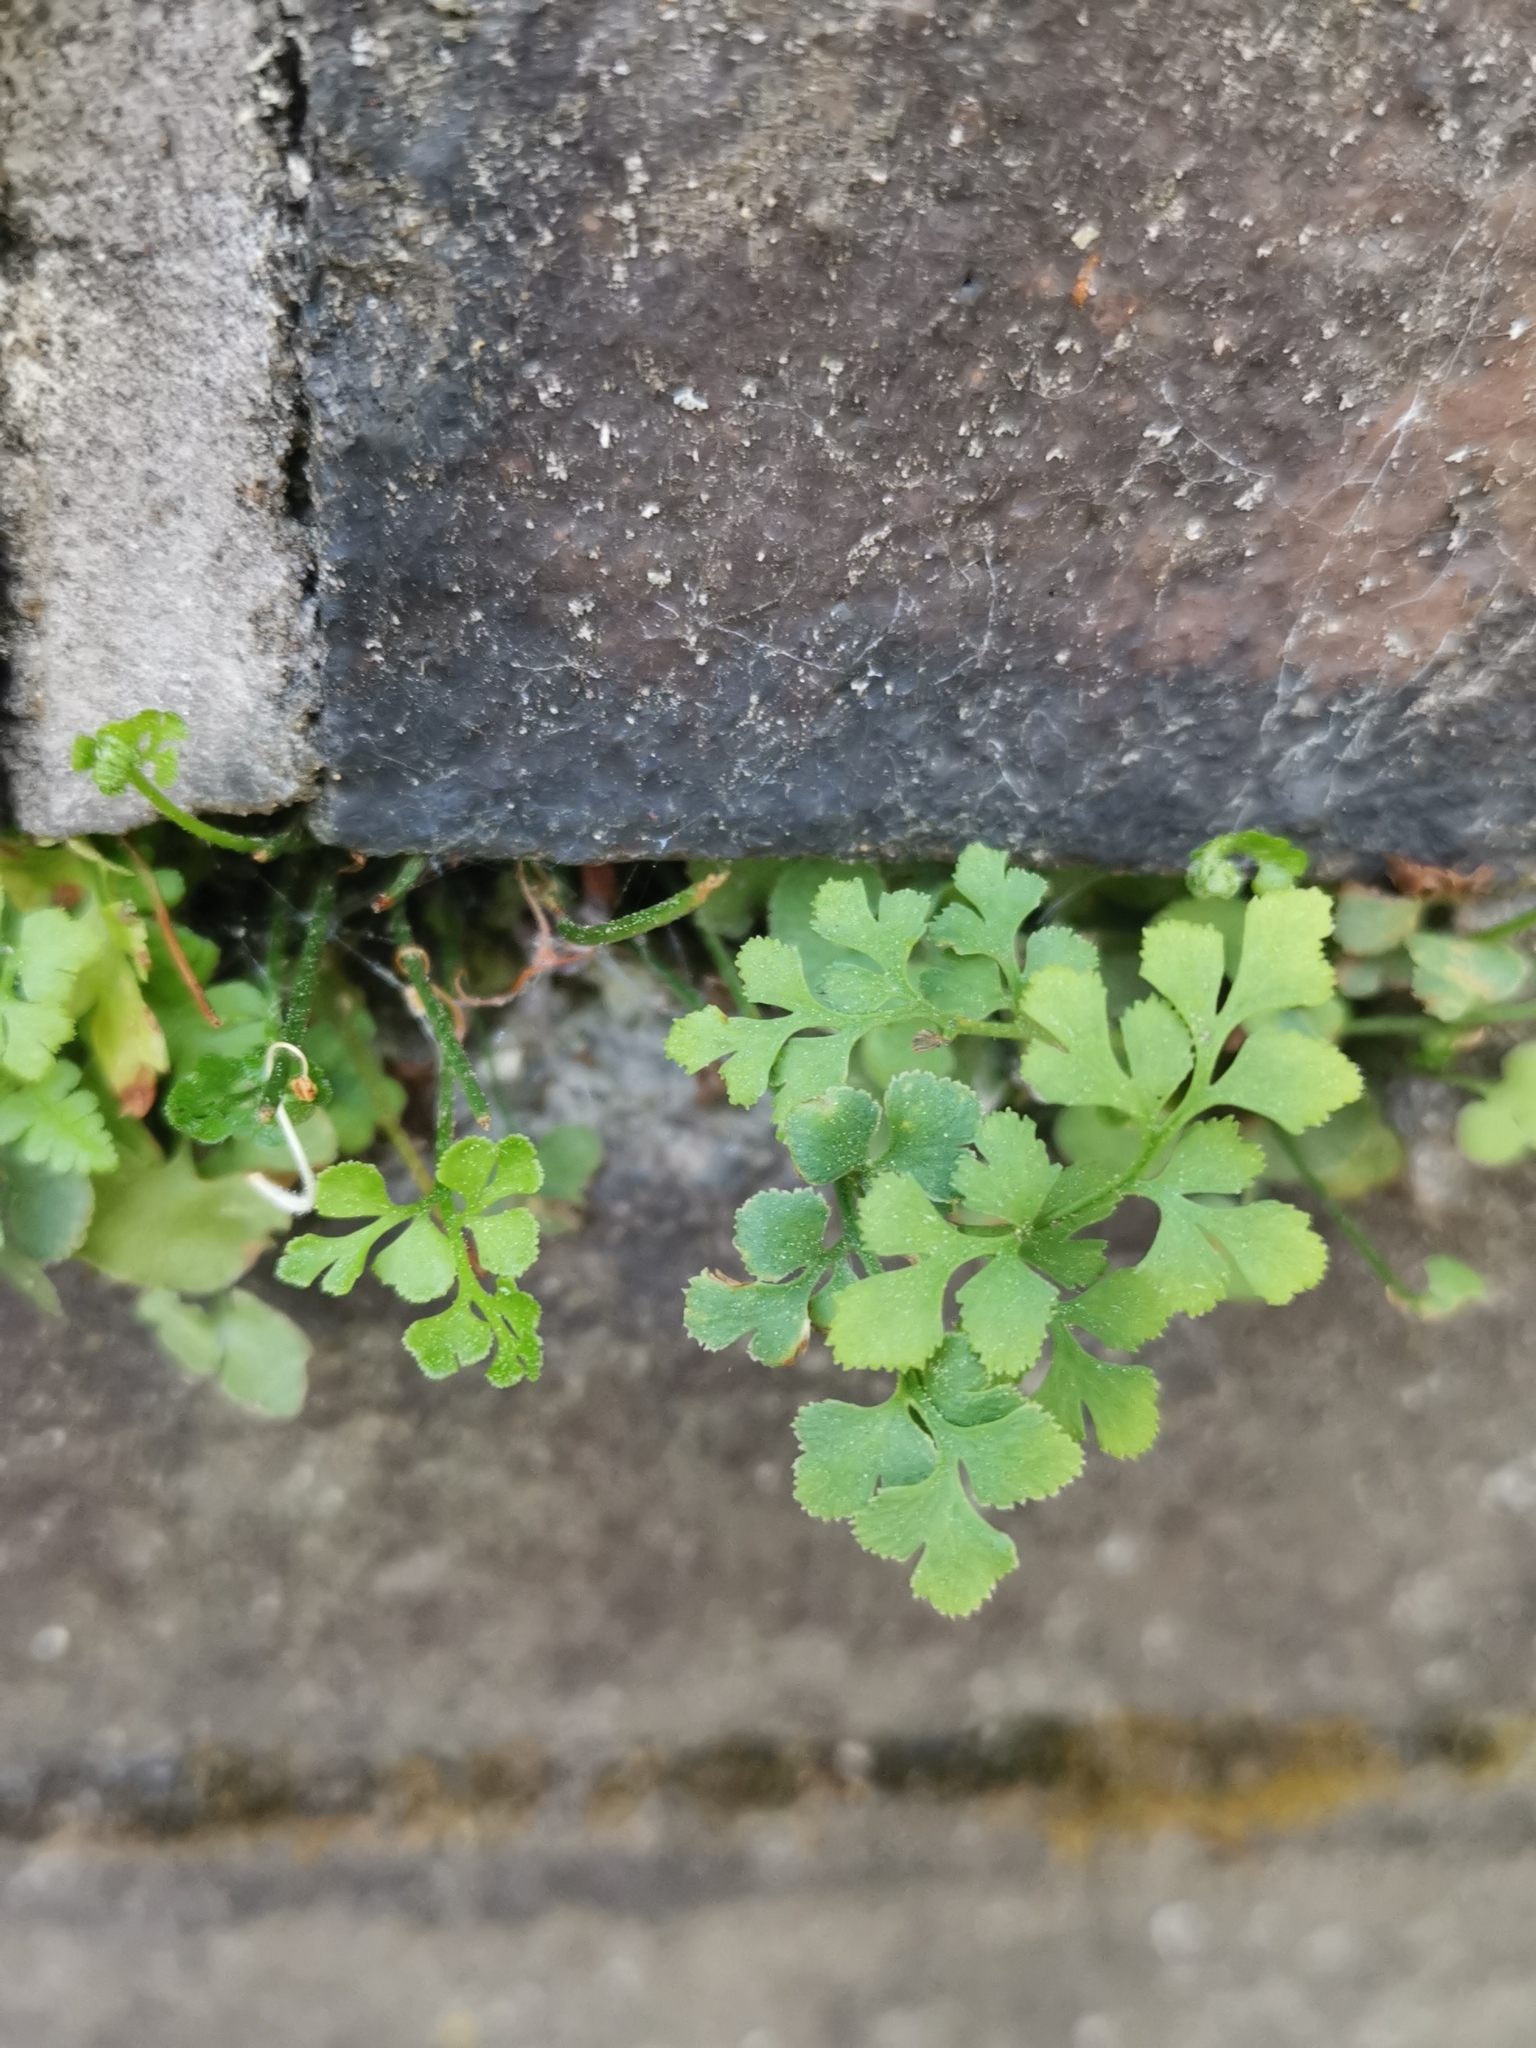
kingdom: Plantae
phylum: Tracheophyta
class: Polypodiopsida
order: Polypodiales
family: Aspleniaceae
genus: Asplenium
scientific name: Asplenium ruta-muraria
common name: Wall-rue
